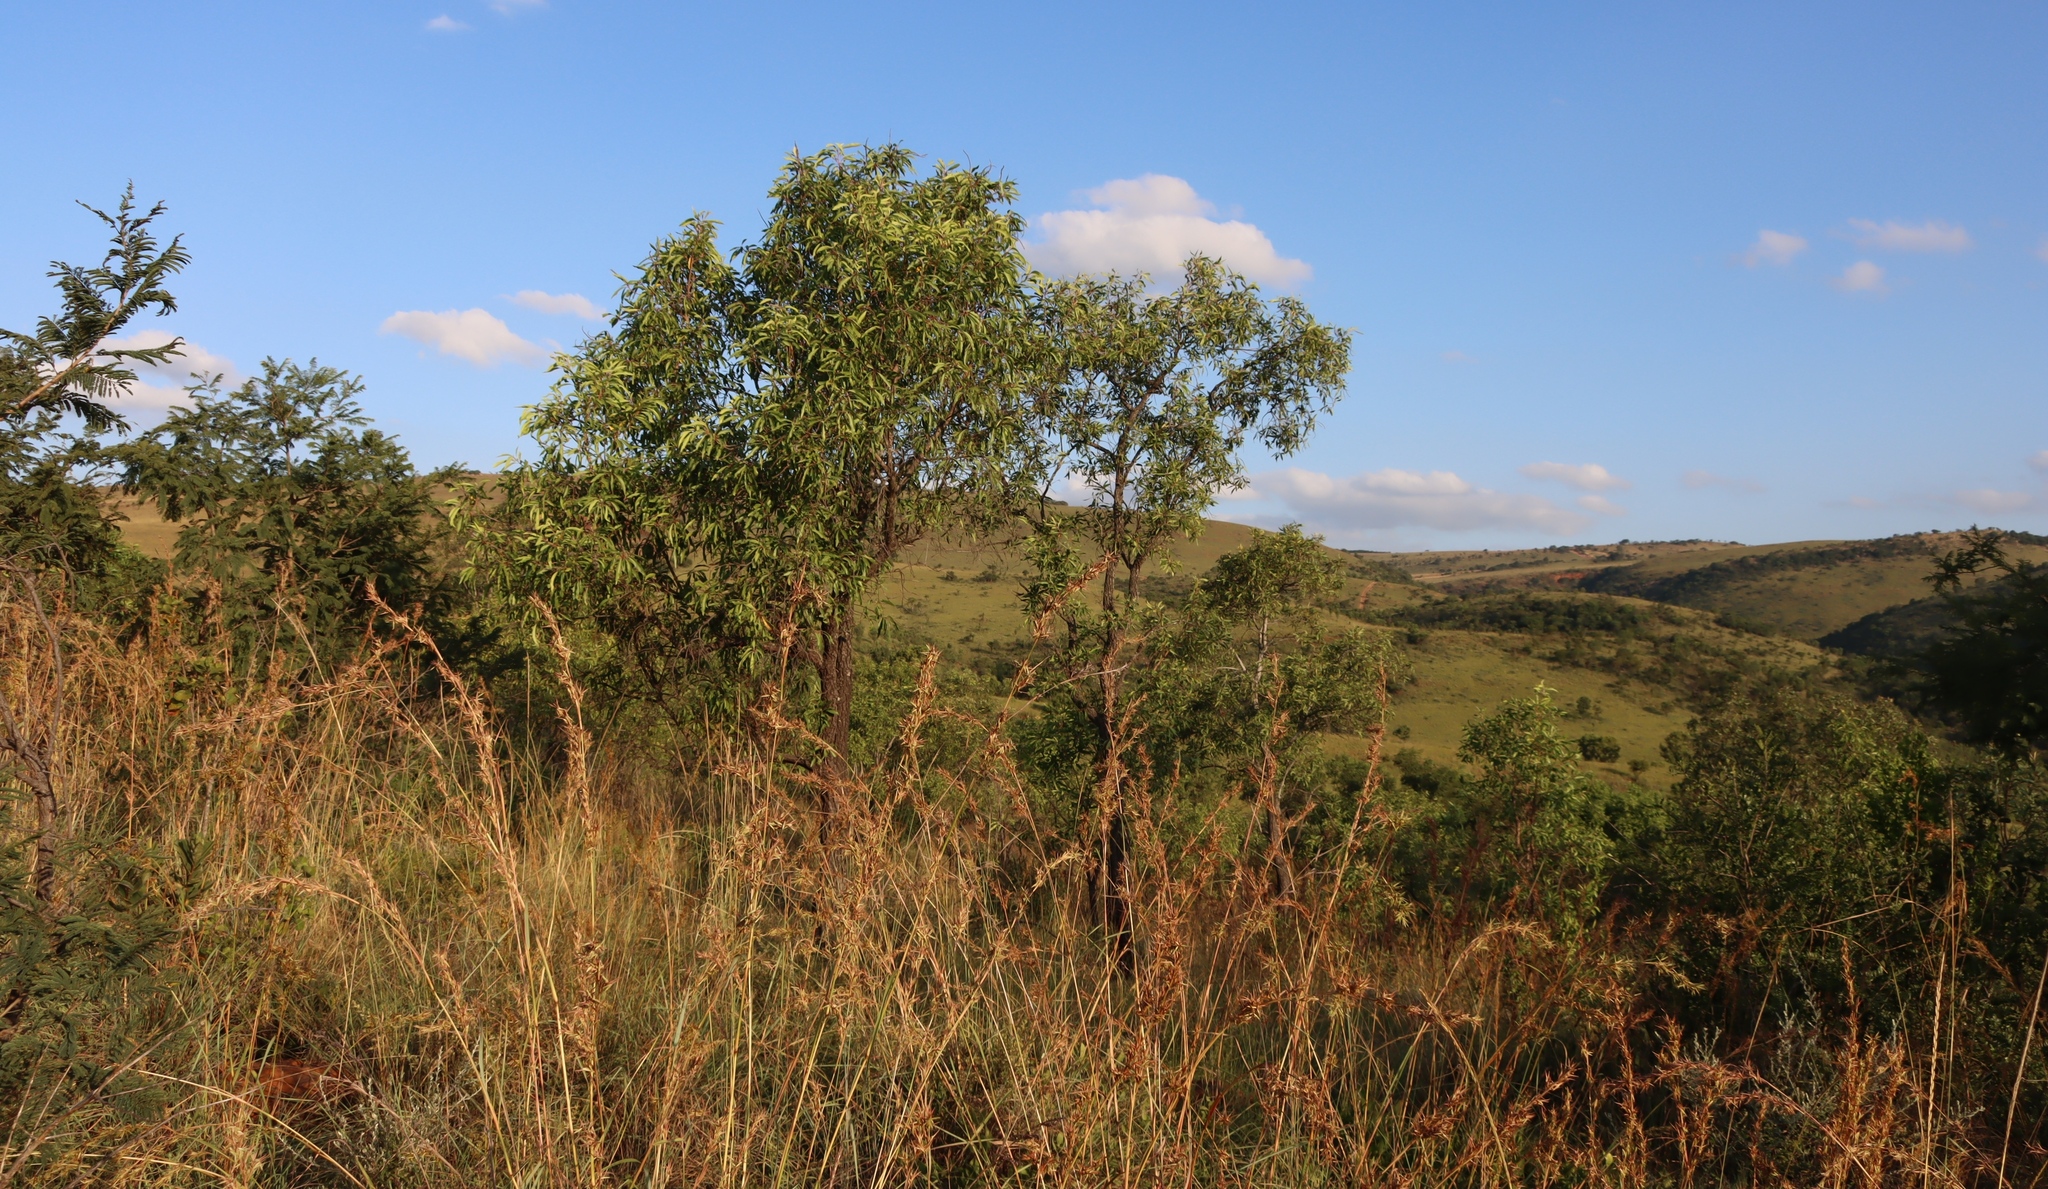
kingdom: Plantae
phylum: Tracheophyta
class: Magnoliopsida
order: Proteales
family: Proteaceae
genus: Faurea
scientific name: Faurea saligna
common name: African bean
